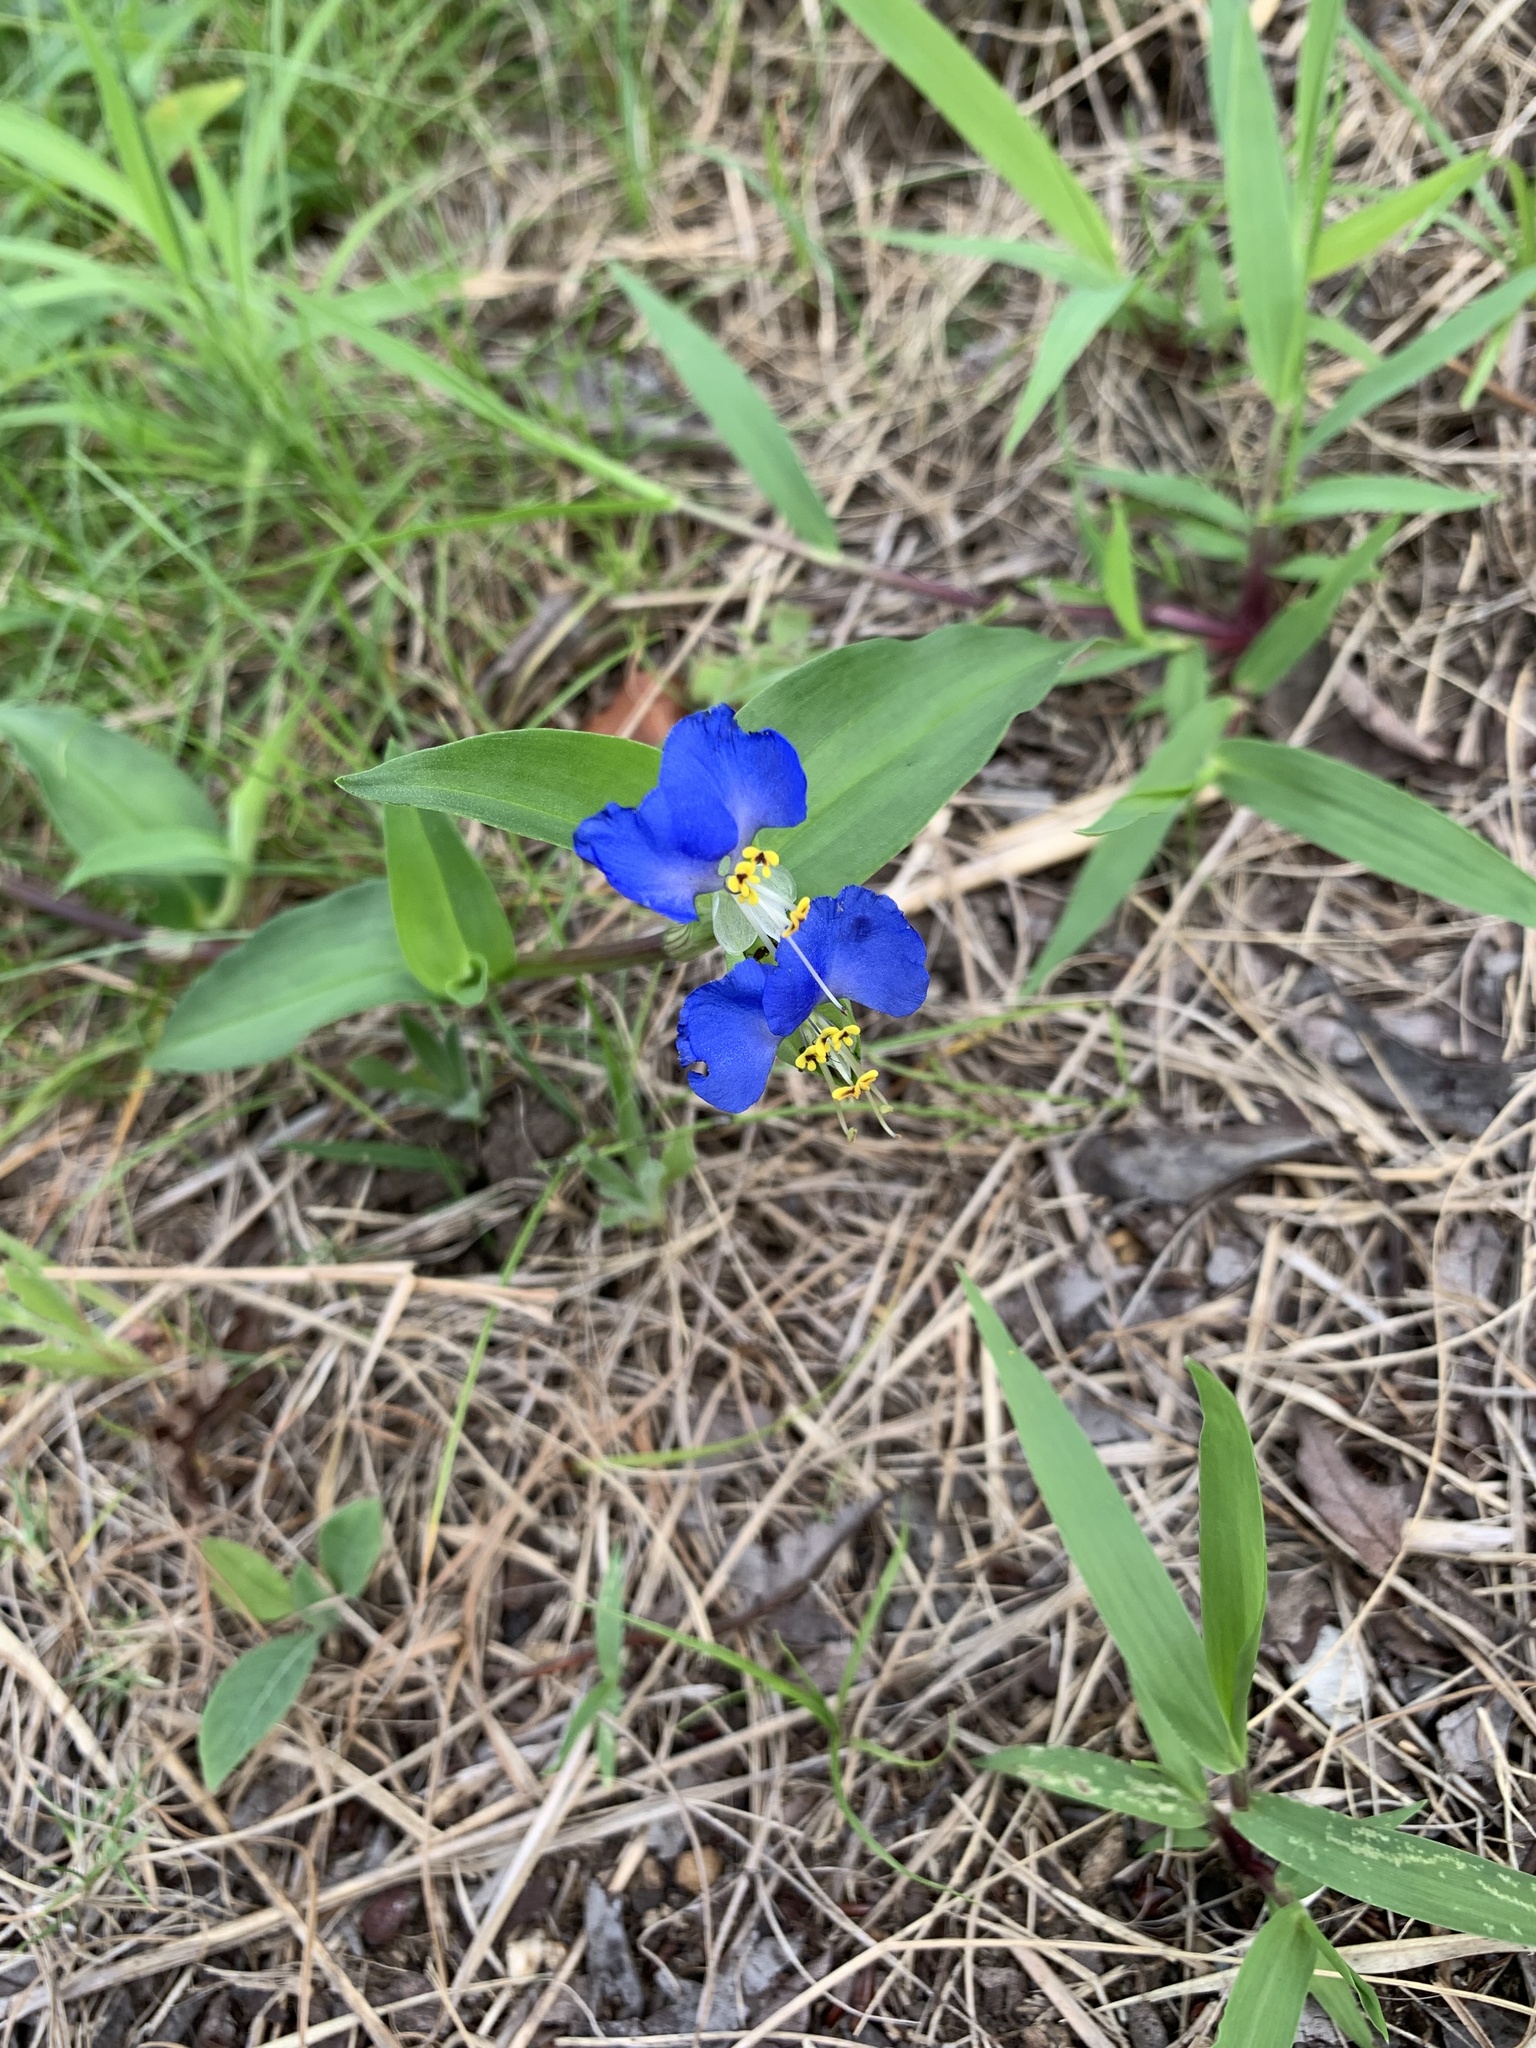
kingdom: Plantae
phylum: Tracheophyta
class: Liliopsida
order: Commelinales
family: Commelinaceae
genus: Commelina
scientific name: Commelina communis
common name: Asiatic dayflower
